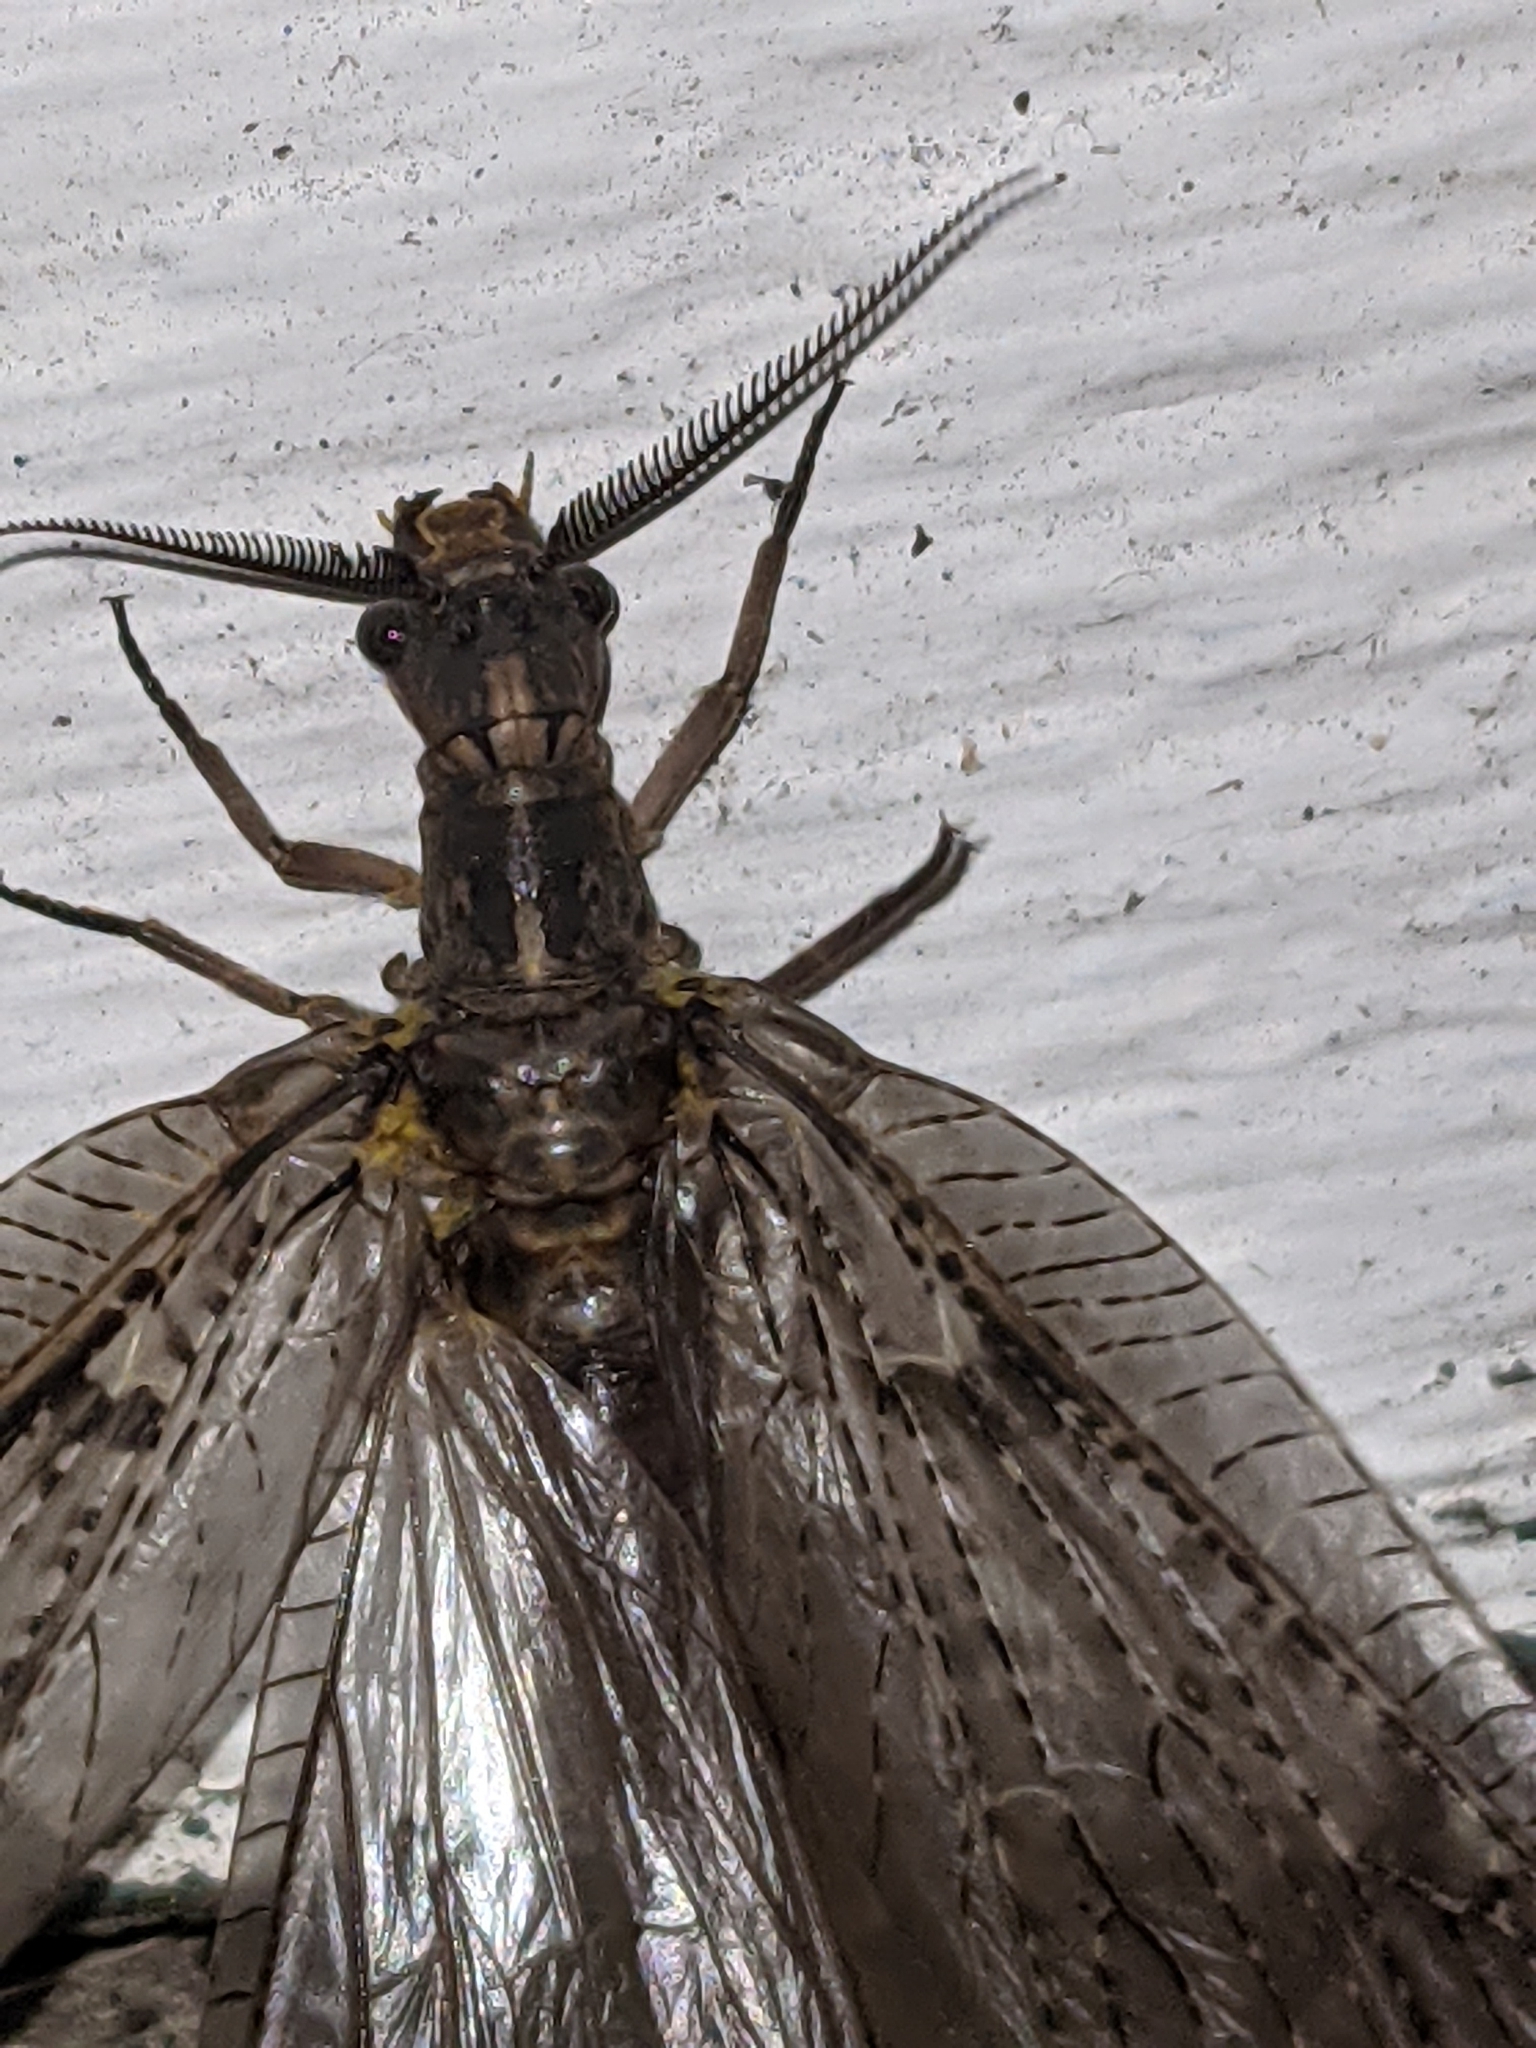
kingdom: Animalia
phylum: Arthropoda
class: Insecta
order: Megaloptera
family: Corydalidae
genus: Chauliodes
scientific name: Chauliodes pectinicornis
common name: Summer fishfly
